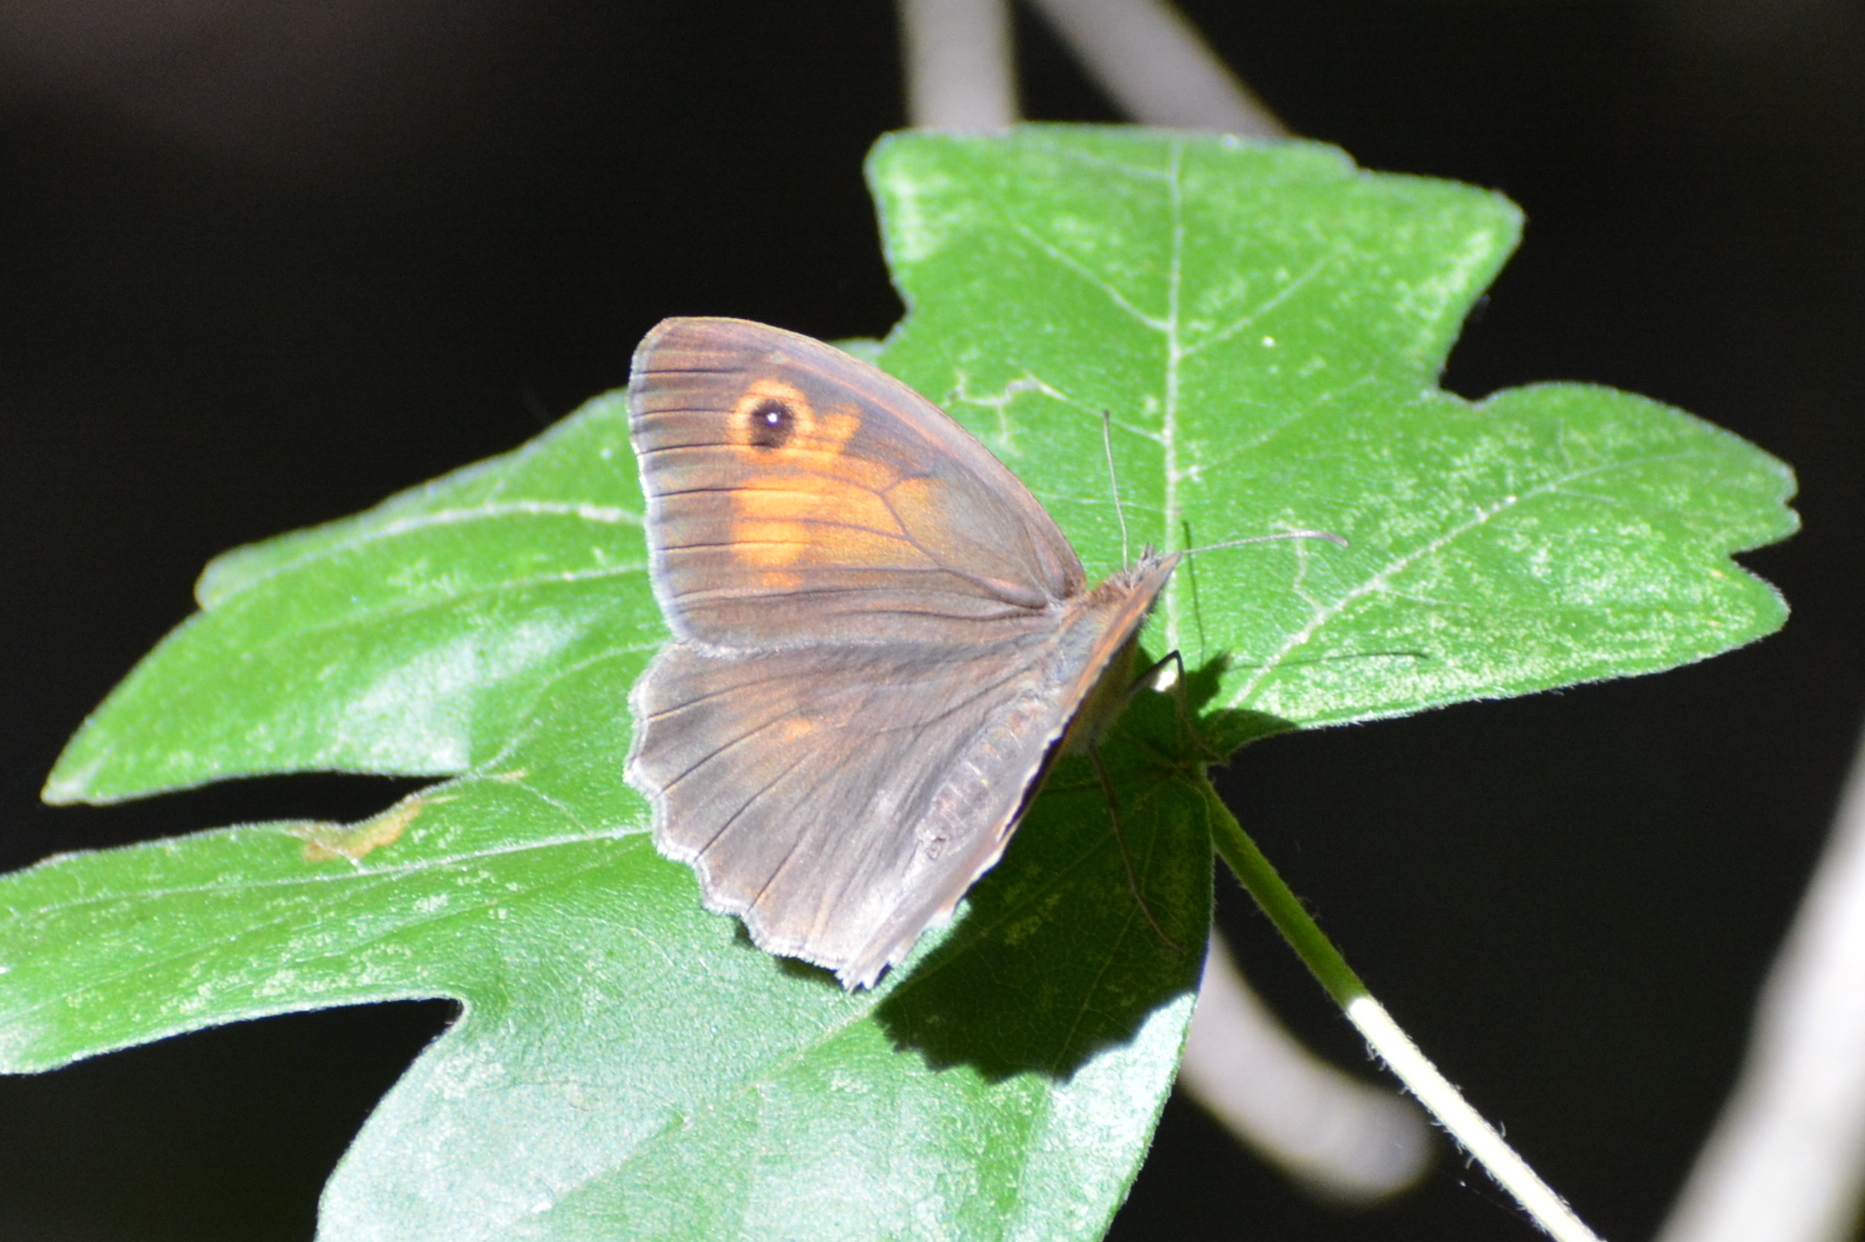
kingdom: Animalia
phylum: Arthropoda
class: Insecta
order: Lepidoptera
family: Nymphalidae
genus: Maniola
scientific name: Maniola jurtina
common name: Meadow brown
